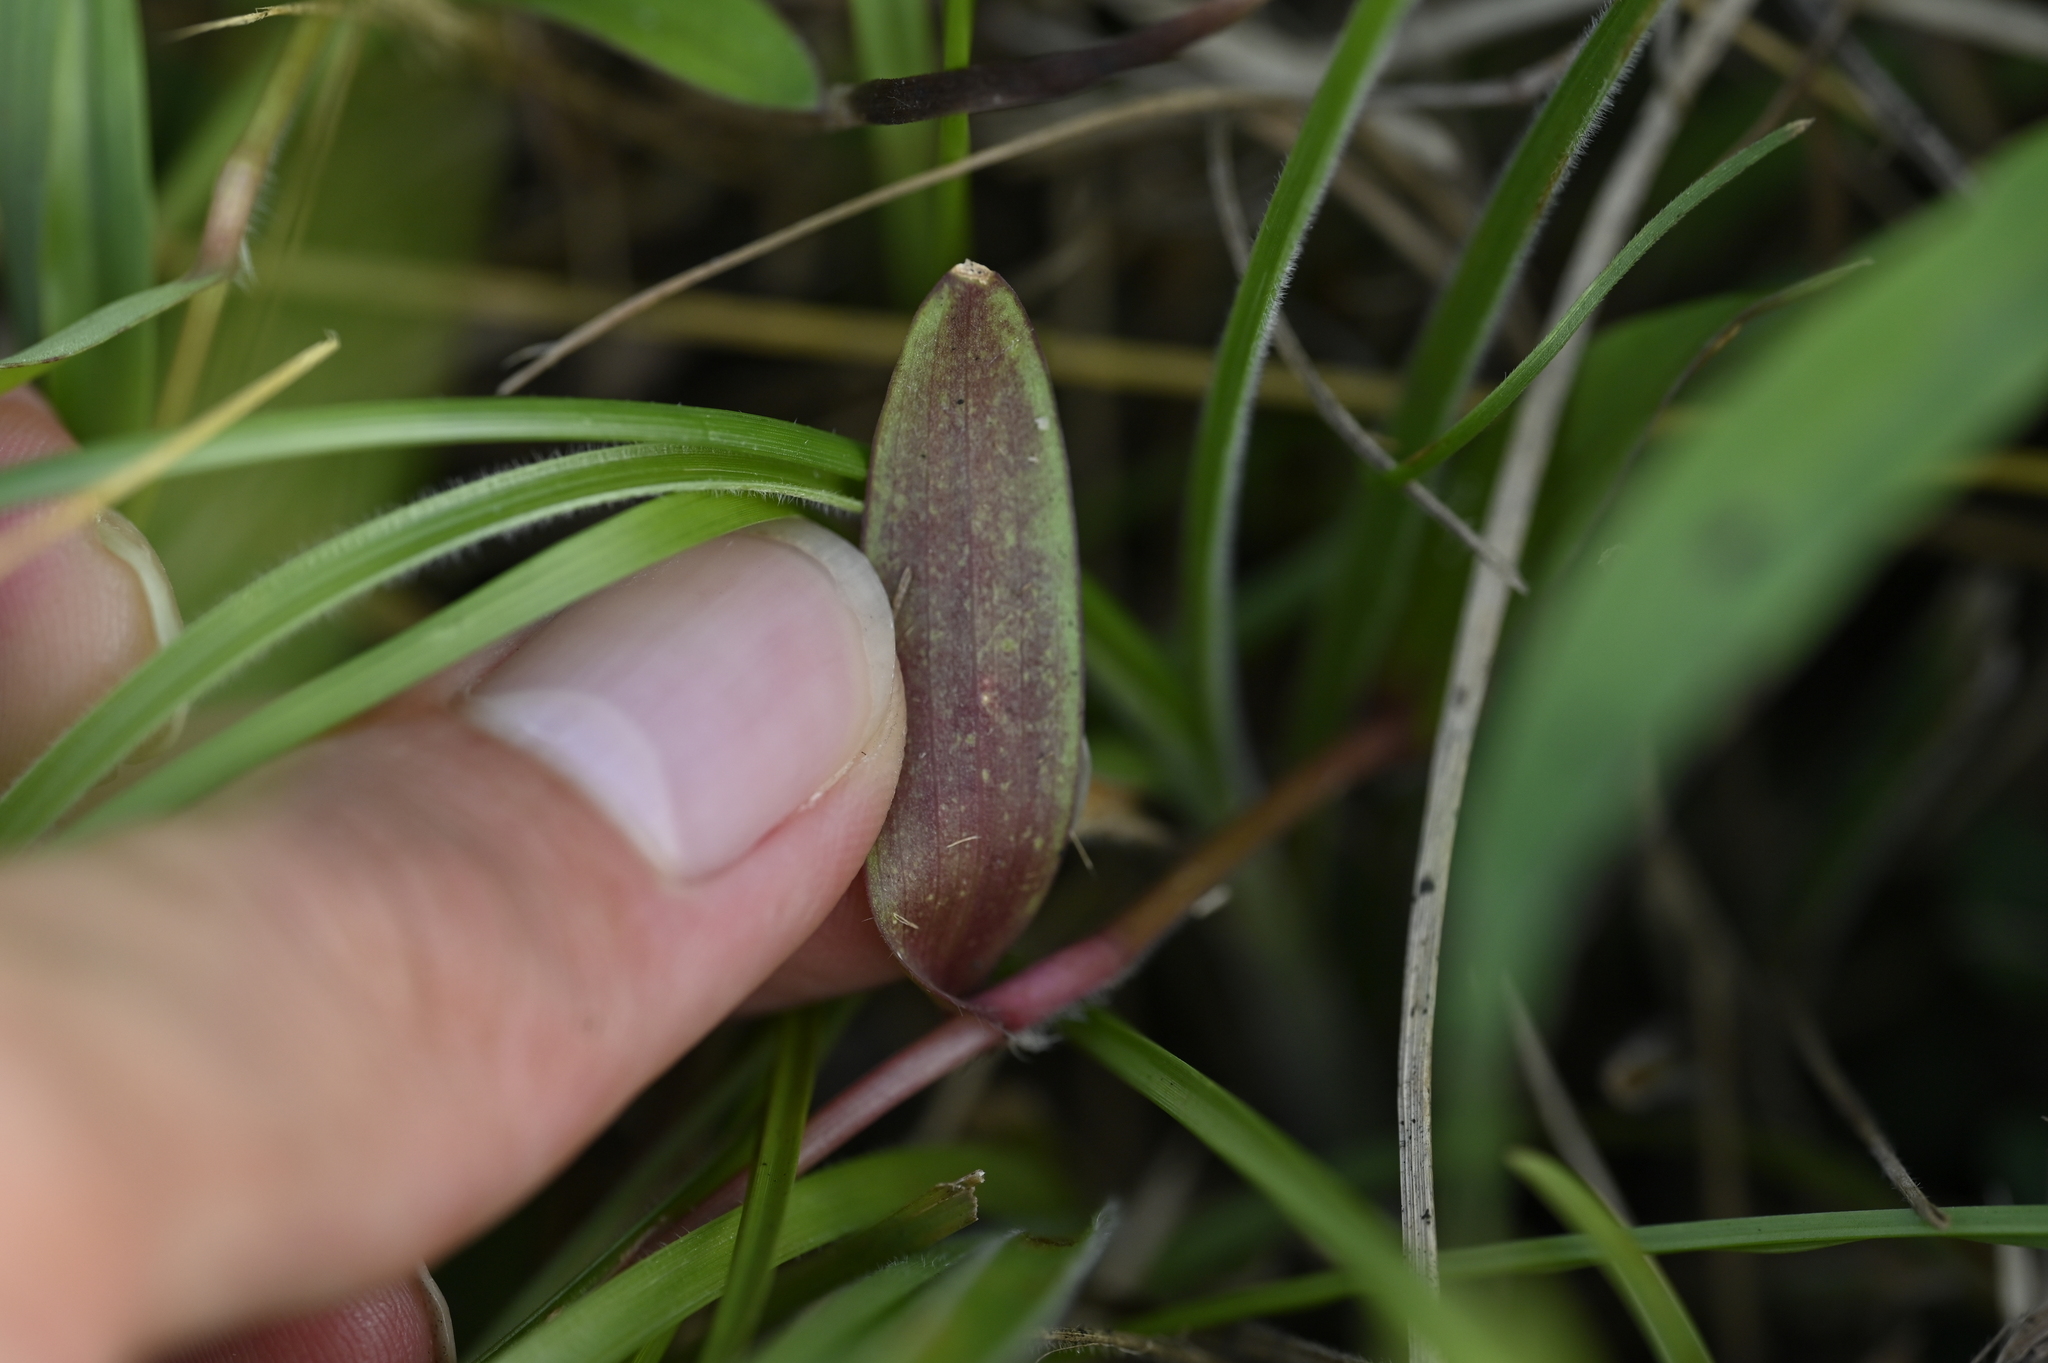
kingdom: Plantae
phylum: Tracheophyta
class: Liliopsida
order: Commelinales
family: Commelinaceae
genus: Murdannia
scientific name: Murdannia loriformis
